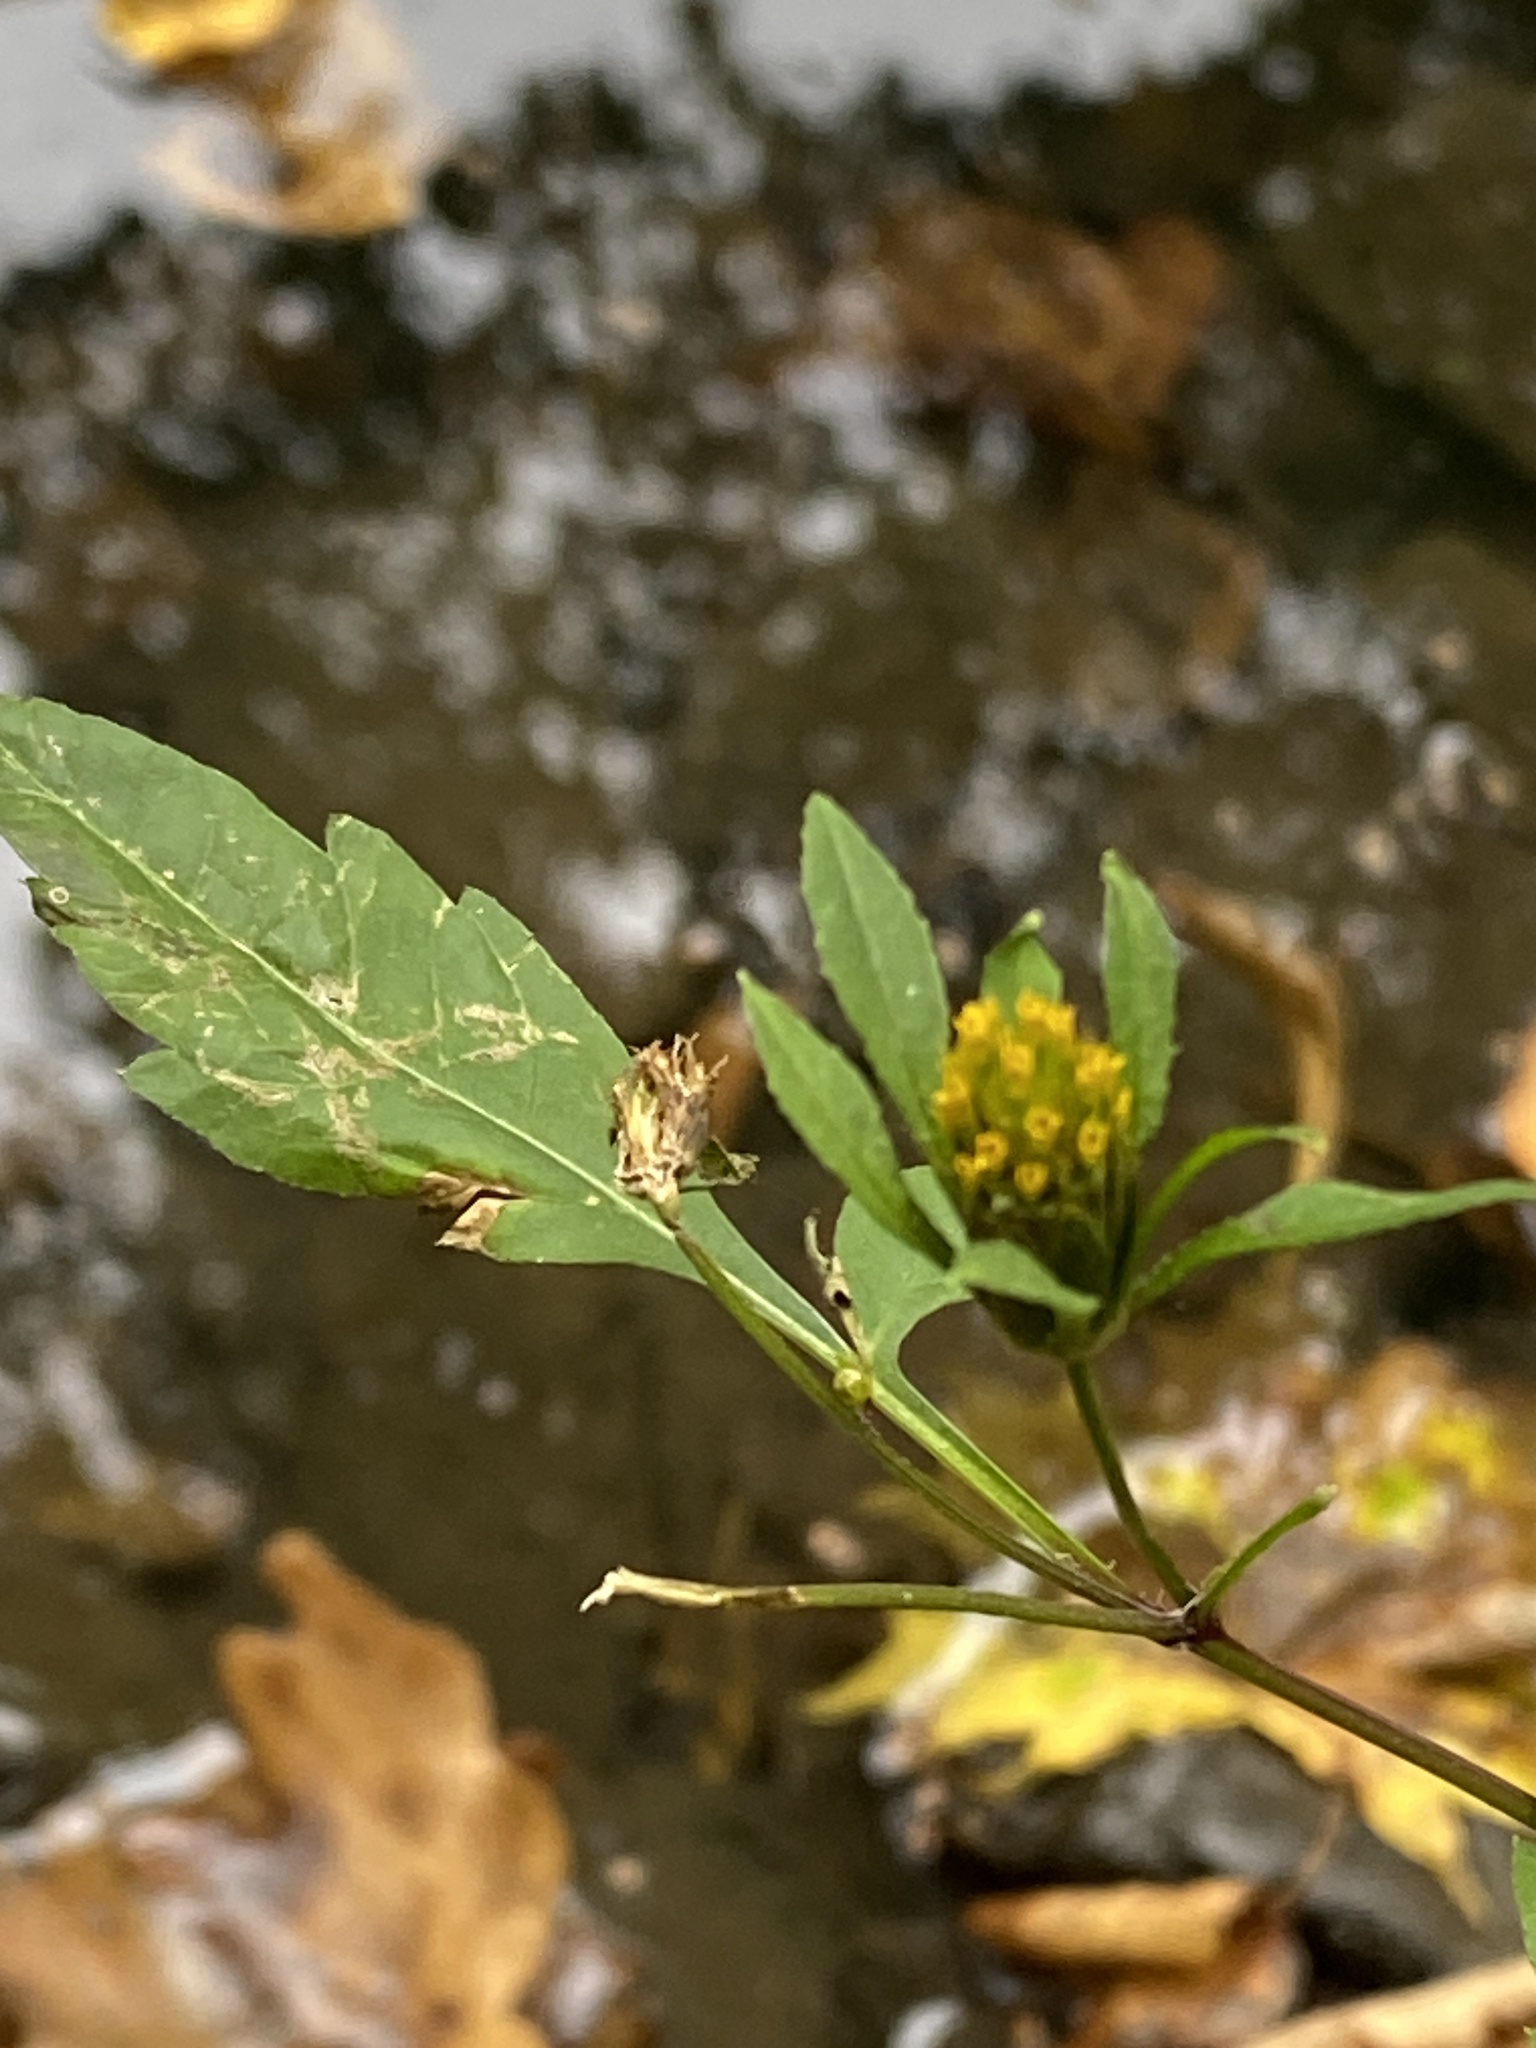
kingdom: Plantae
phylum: Tracheophyta
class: Magnoliopsida
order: Asterales
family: Asteraceae
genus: Bidens
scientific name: Bidens frondosa
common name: Beggarticks
